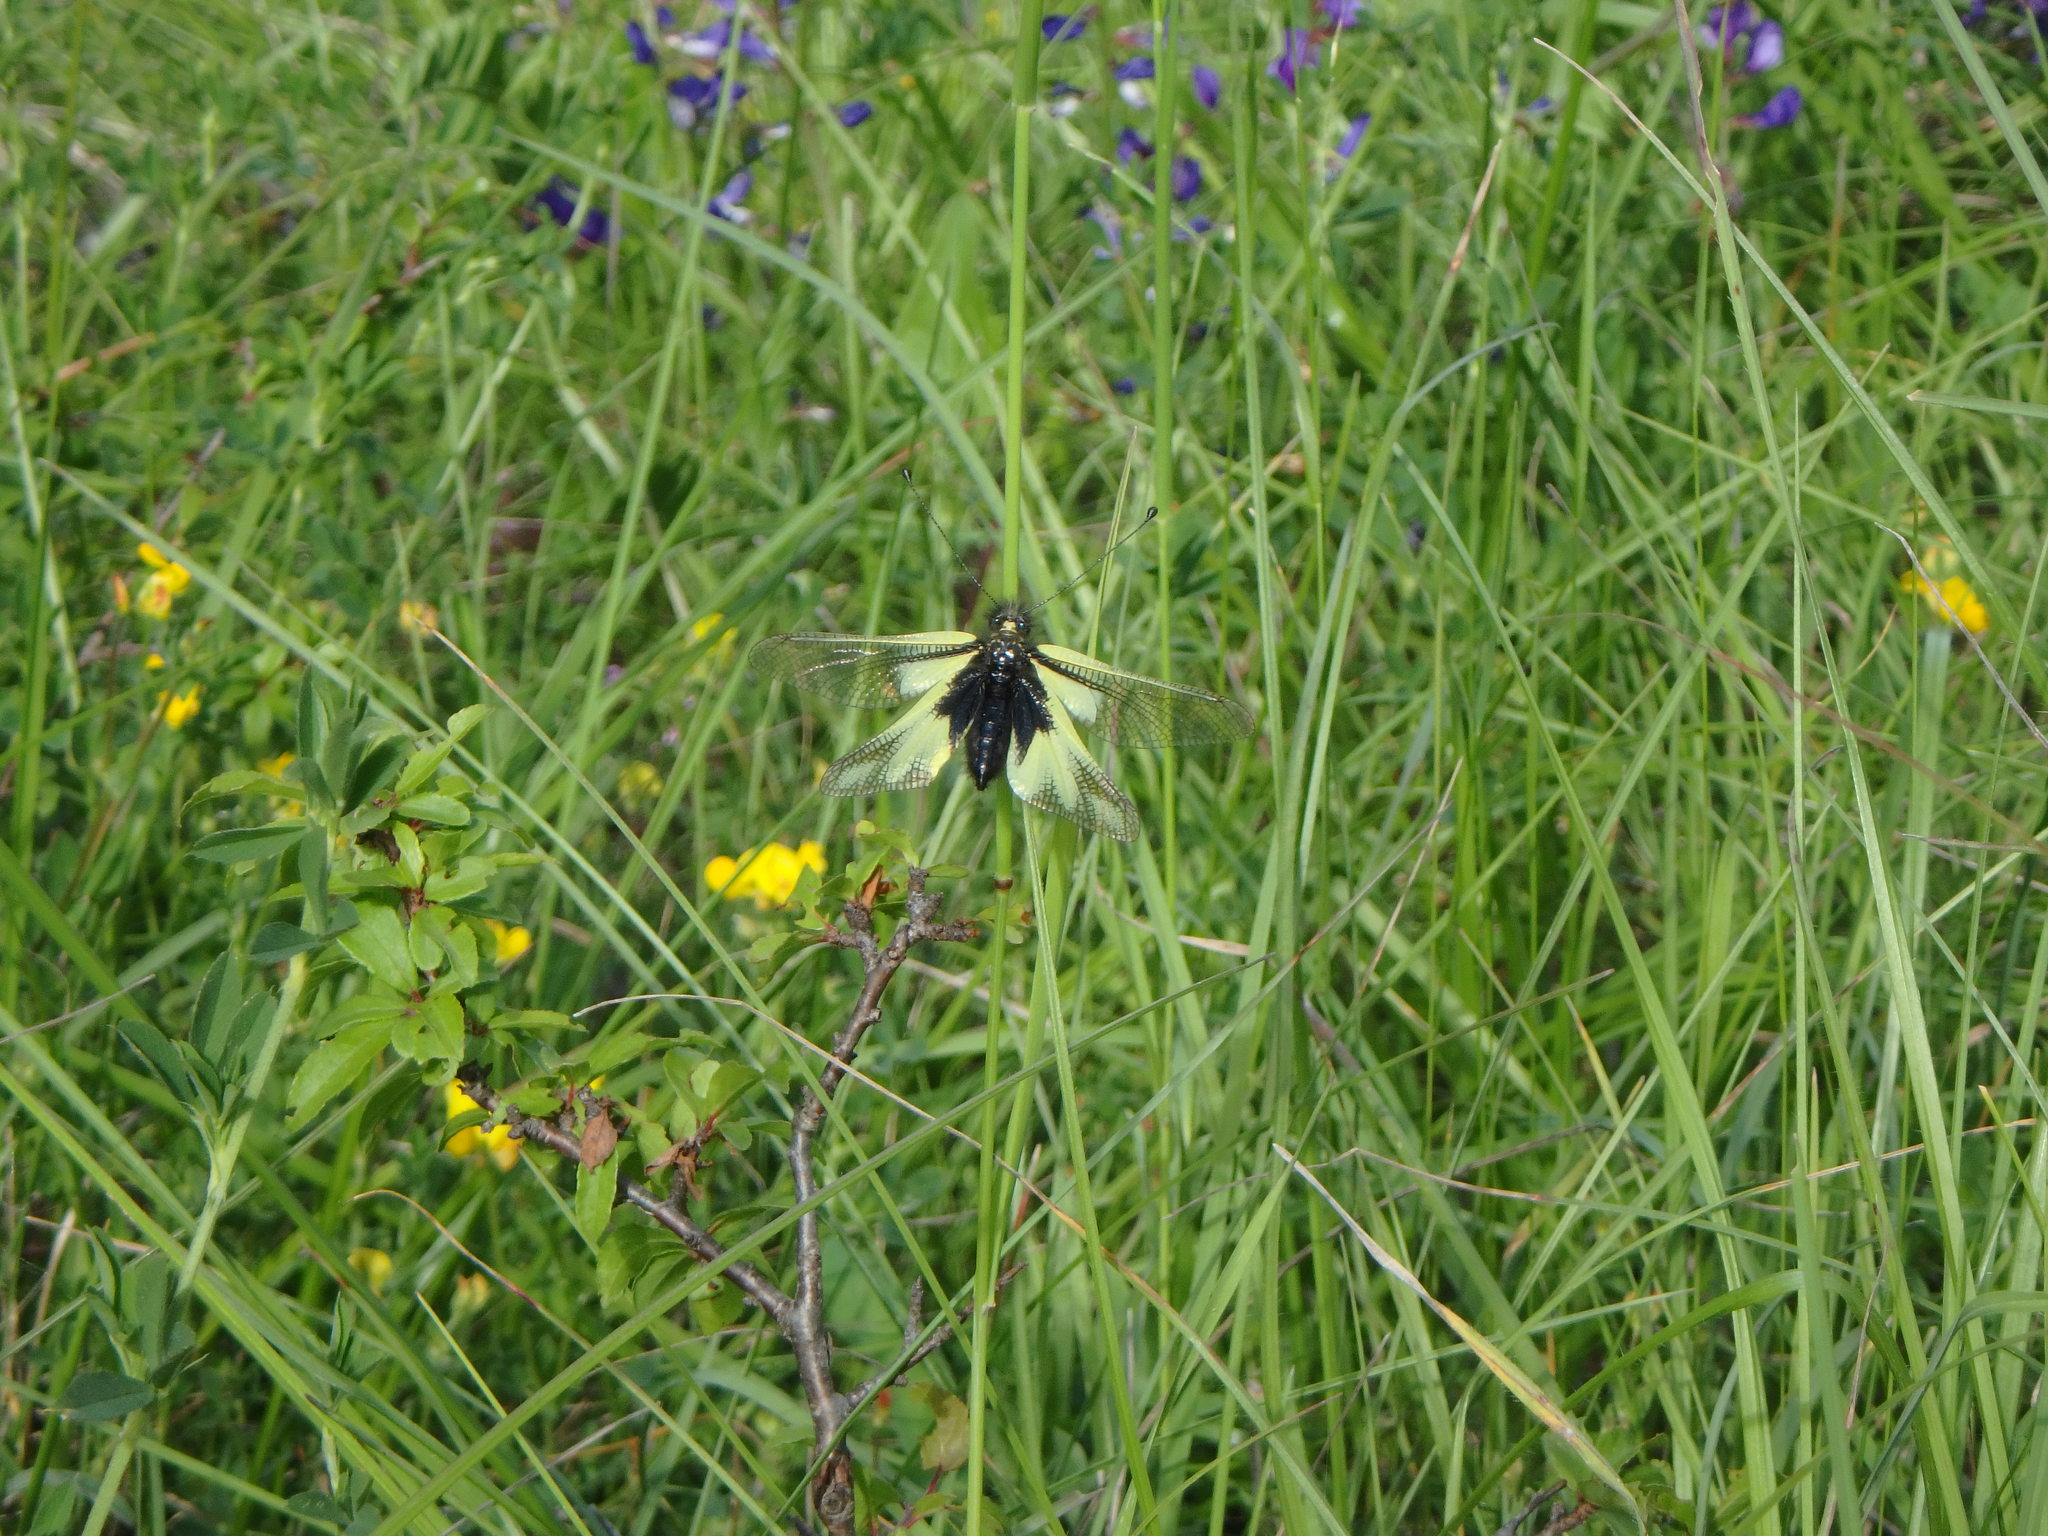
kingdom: Animalia
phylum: Arthropoda
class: Insecta
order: Neuroptera
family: Ascalaphidae
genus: Libelloides
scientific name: Libelloides coccajus
